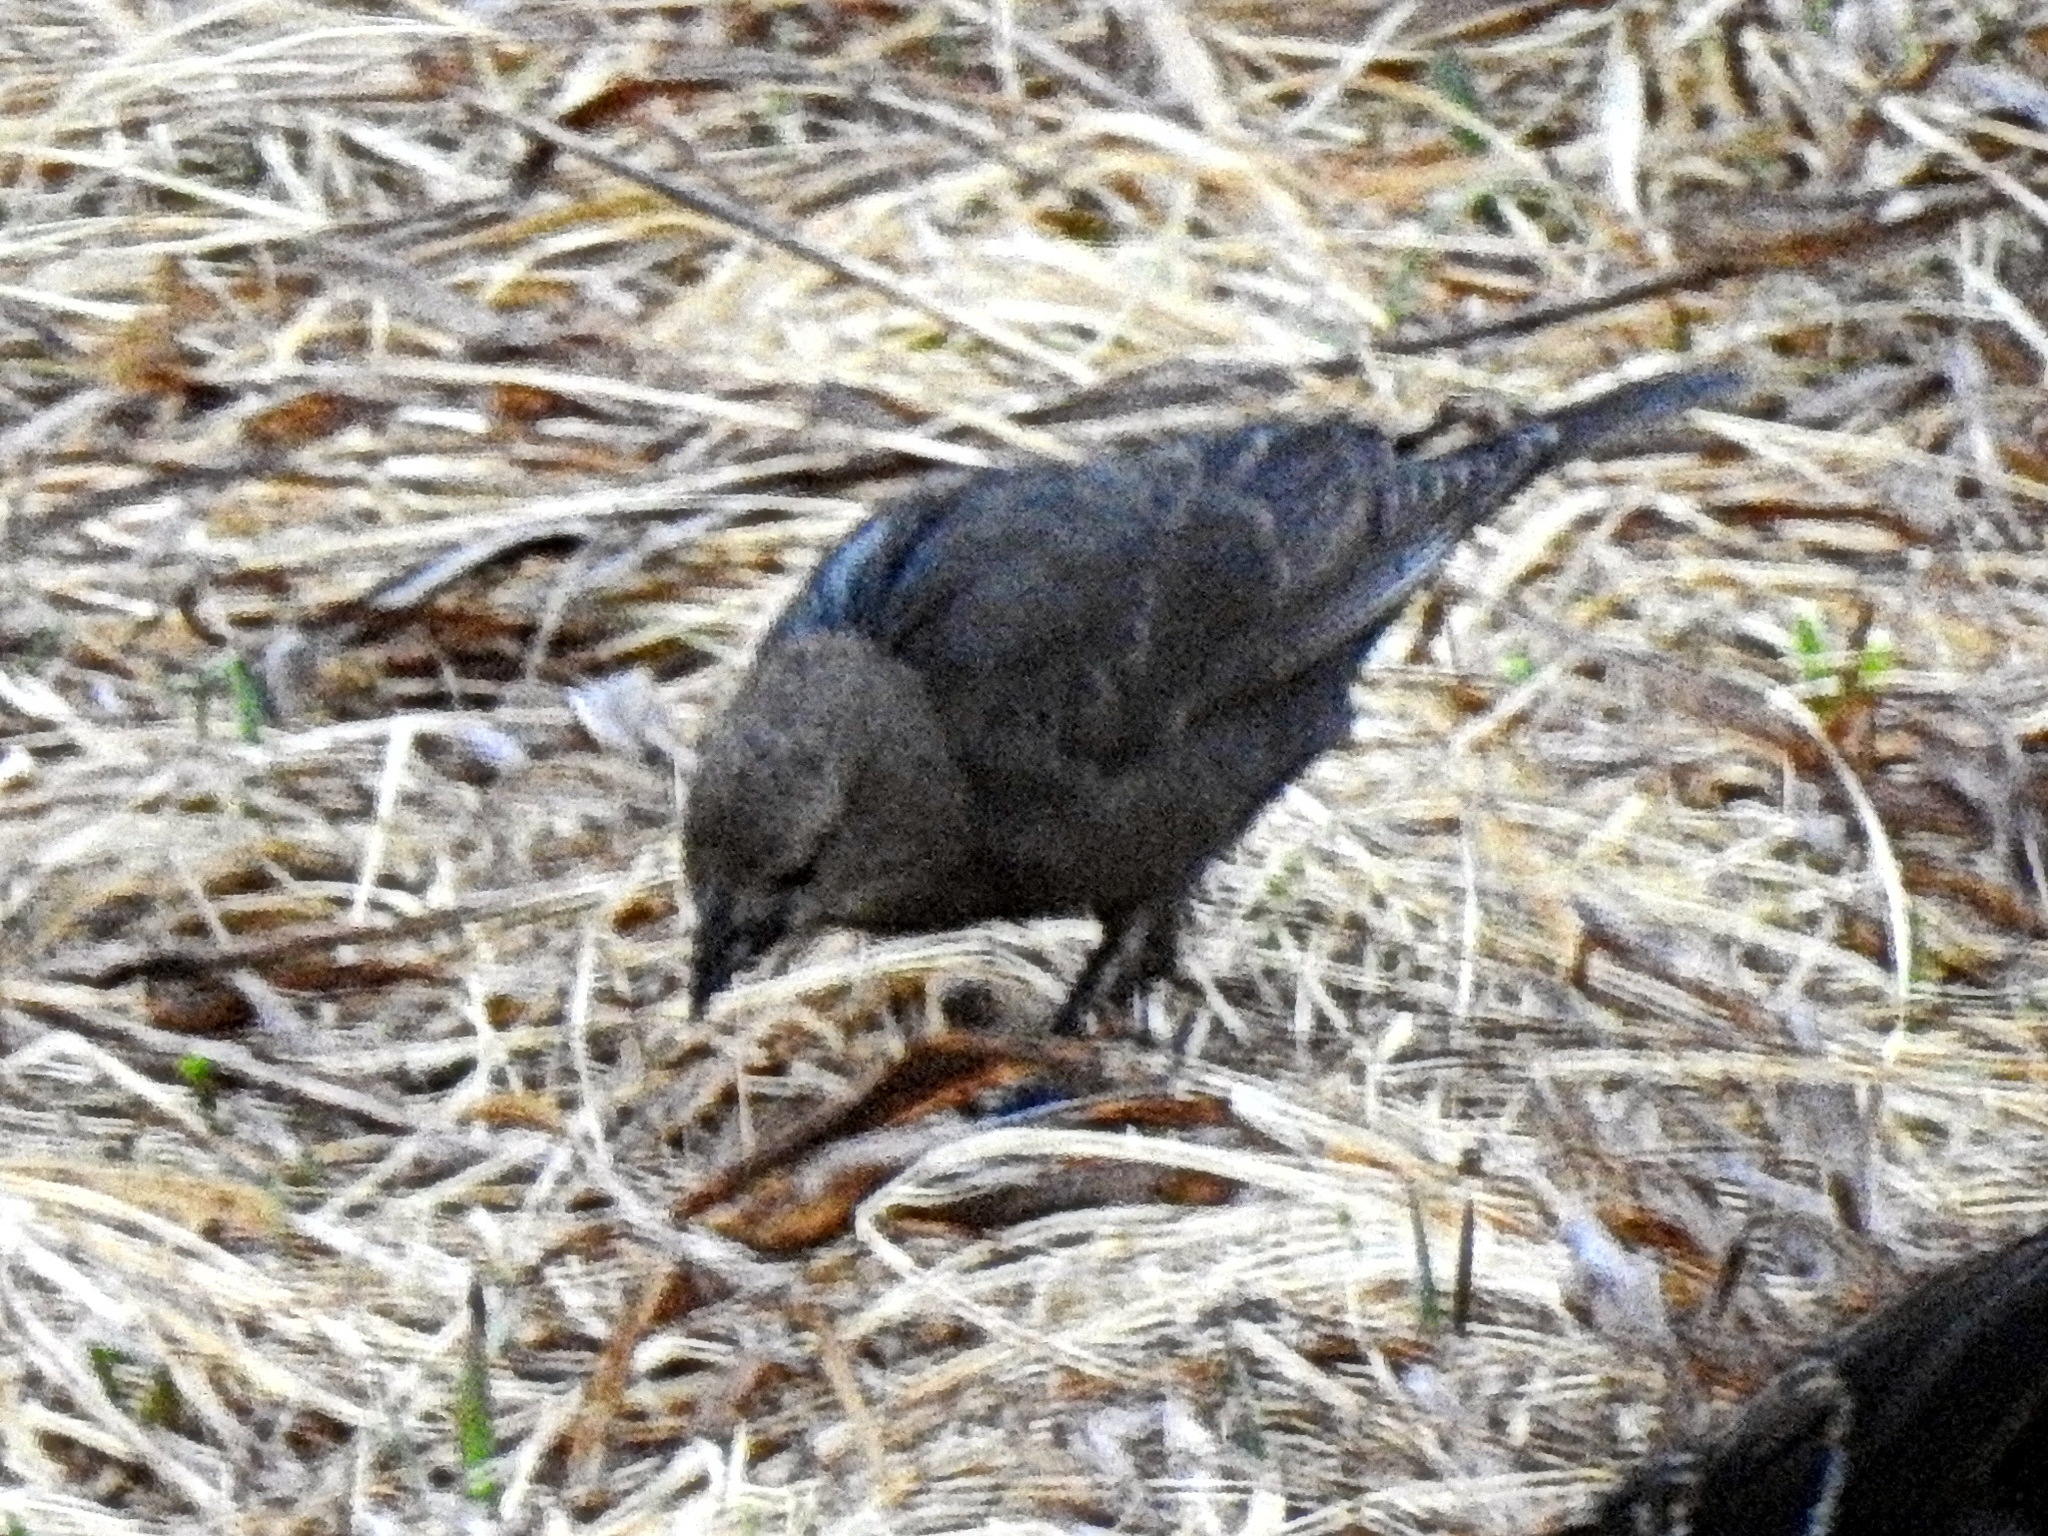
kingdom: Animalia
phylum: Chordata
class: Aves
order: Passeriformes
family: Icteridae
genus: Molothrus
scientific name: Molothrus ater
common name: Brown-headed cowbird
